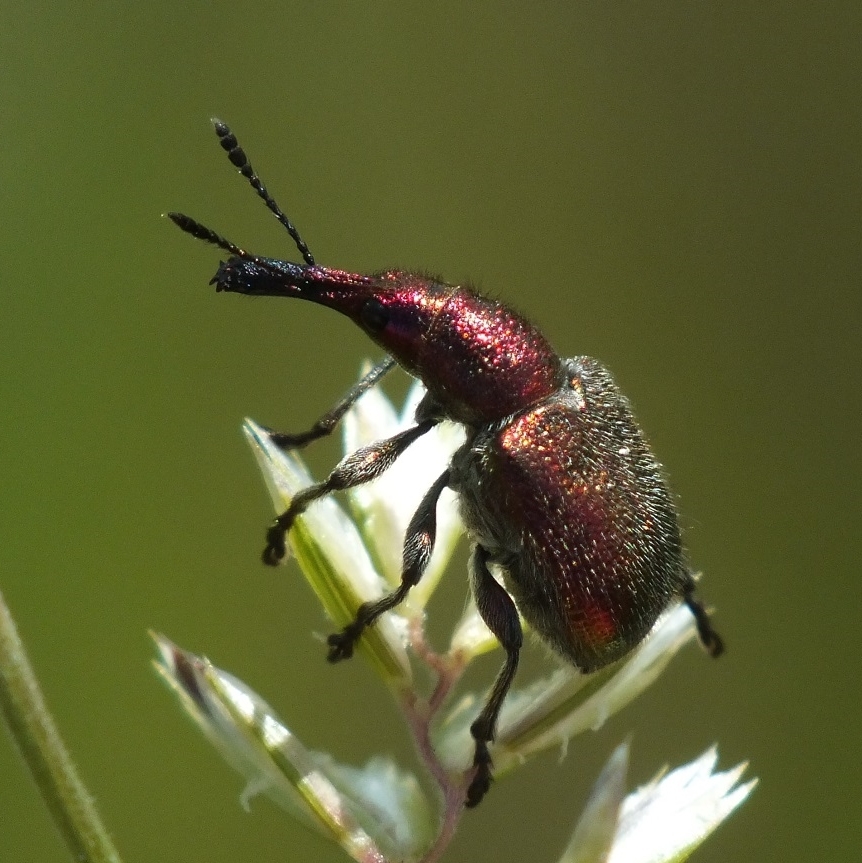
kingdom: Animalia
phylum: Arthropoda
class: Insecta
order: Coleoptera
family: Attelabidae
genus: Rhynchites
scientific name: Rhynchites auratus
